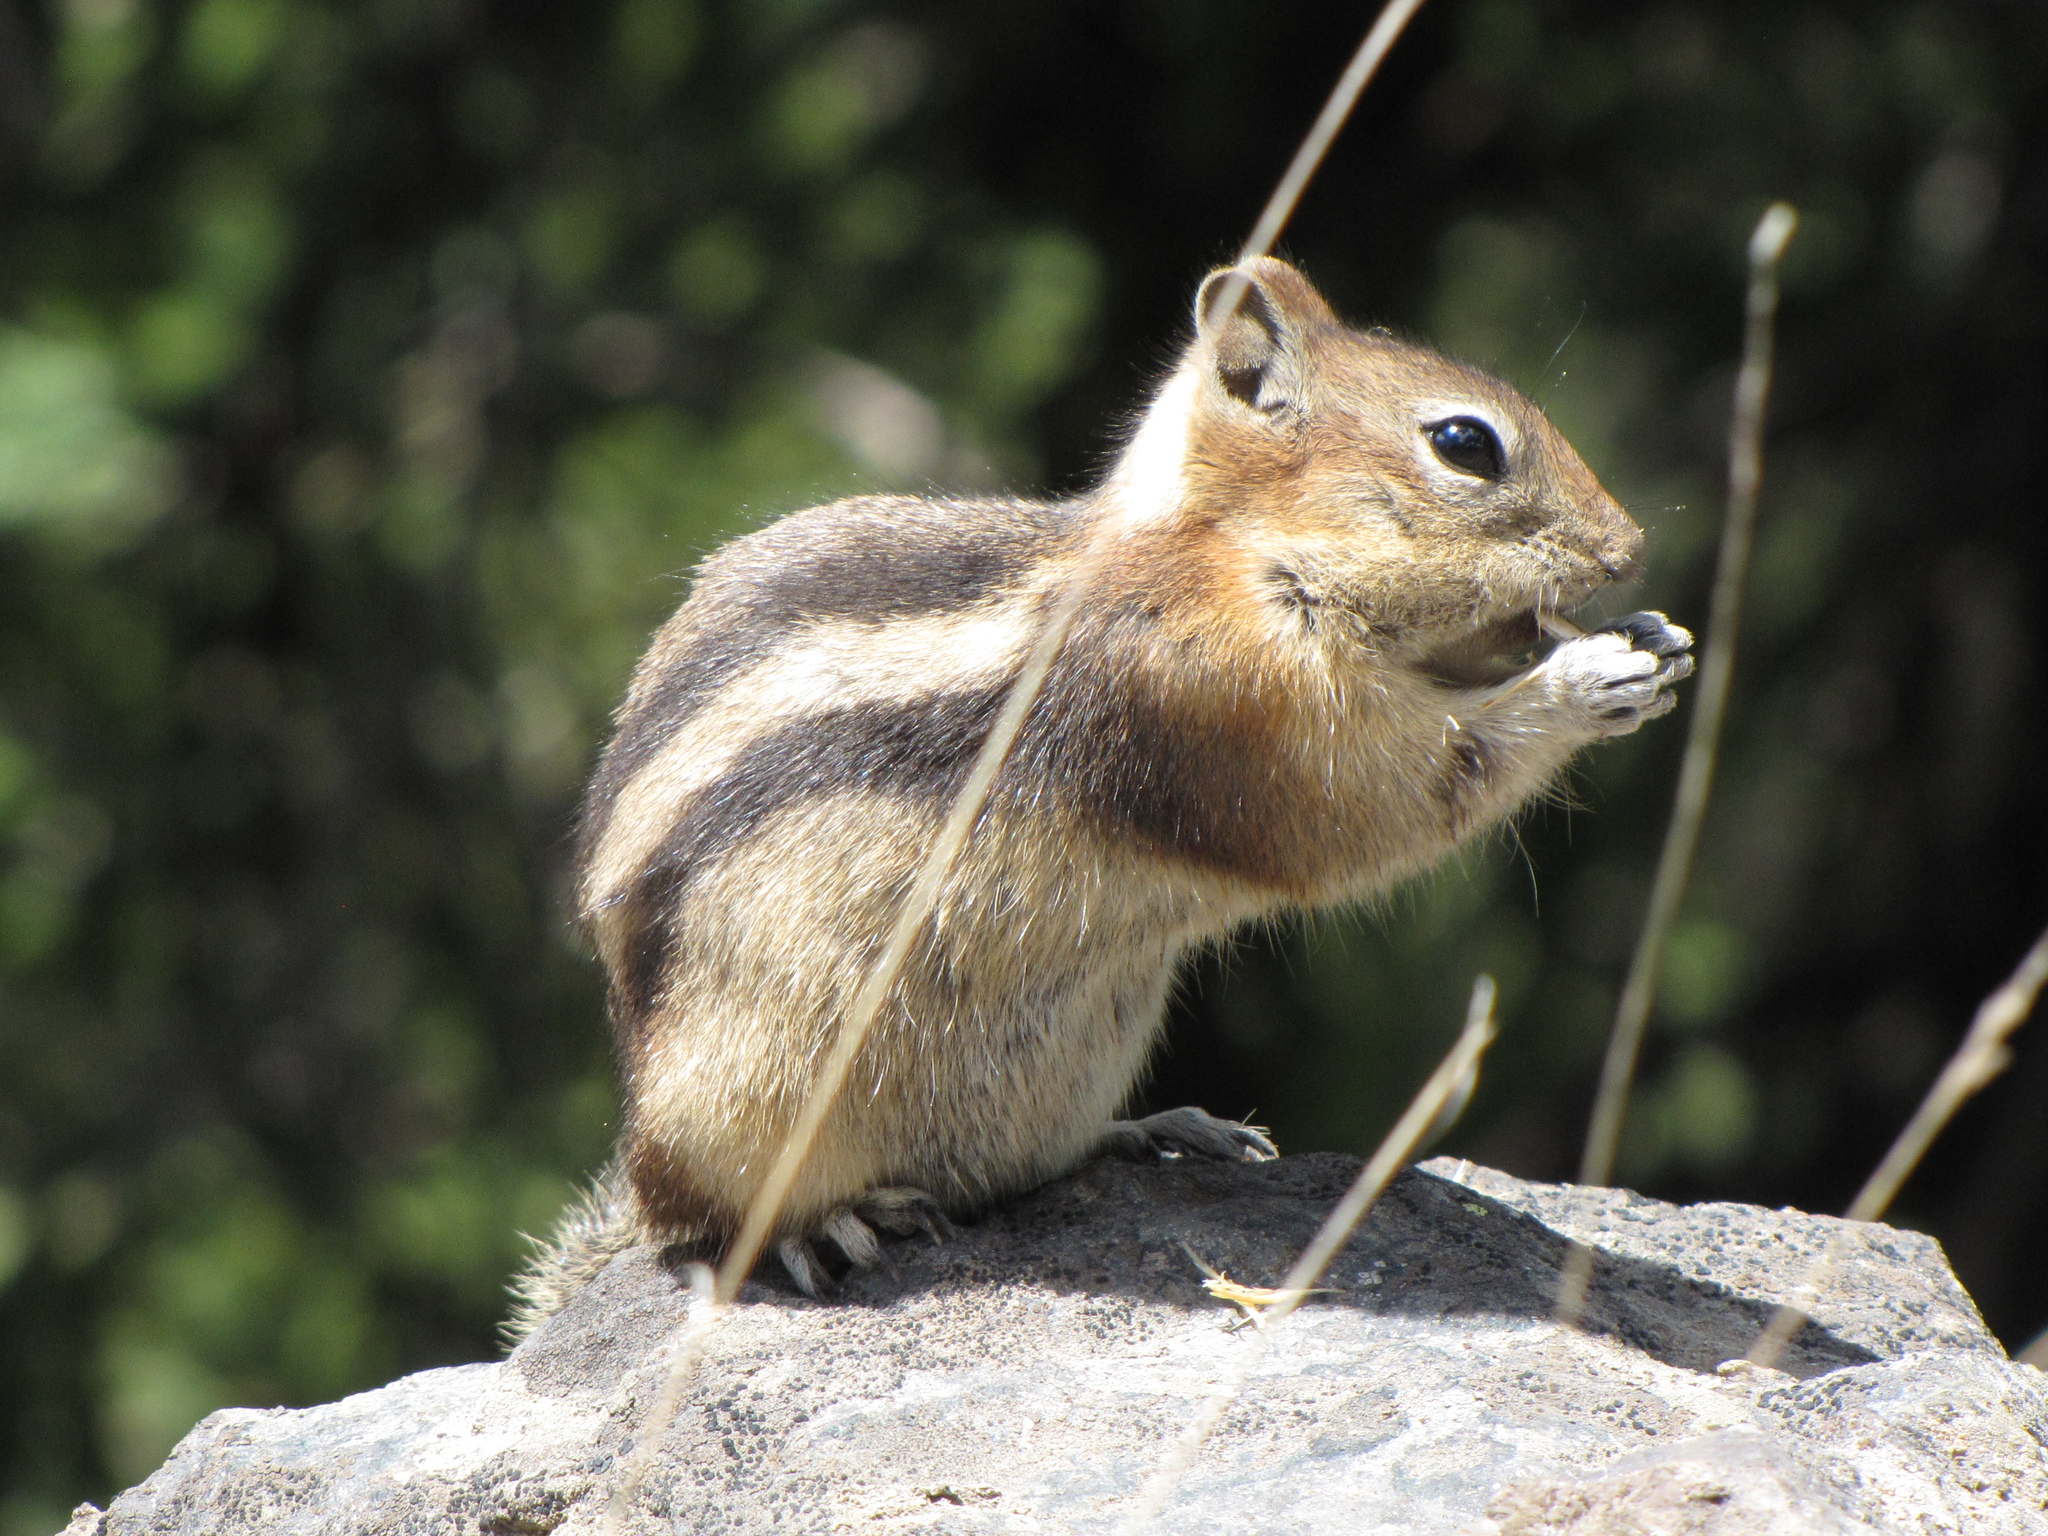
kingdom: Animalia
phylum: Chordata
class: Mammalia
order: Rodentia
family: Sciuridae
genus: Callospermophilus
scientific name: Callospermophilus lateralis
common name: Golden-mantled ground squirrel
